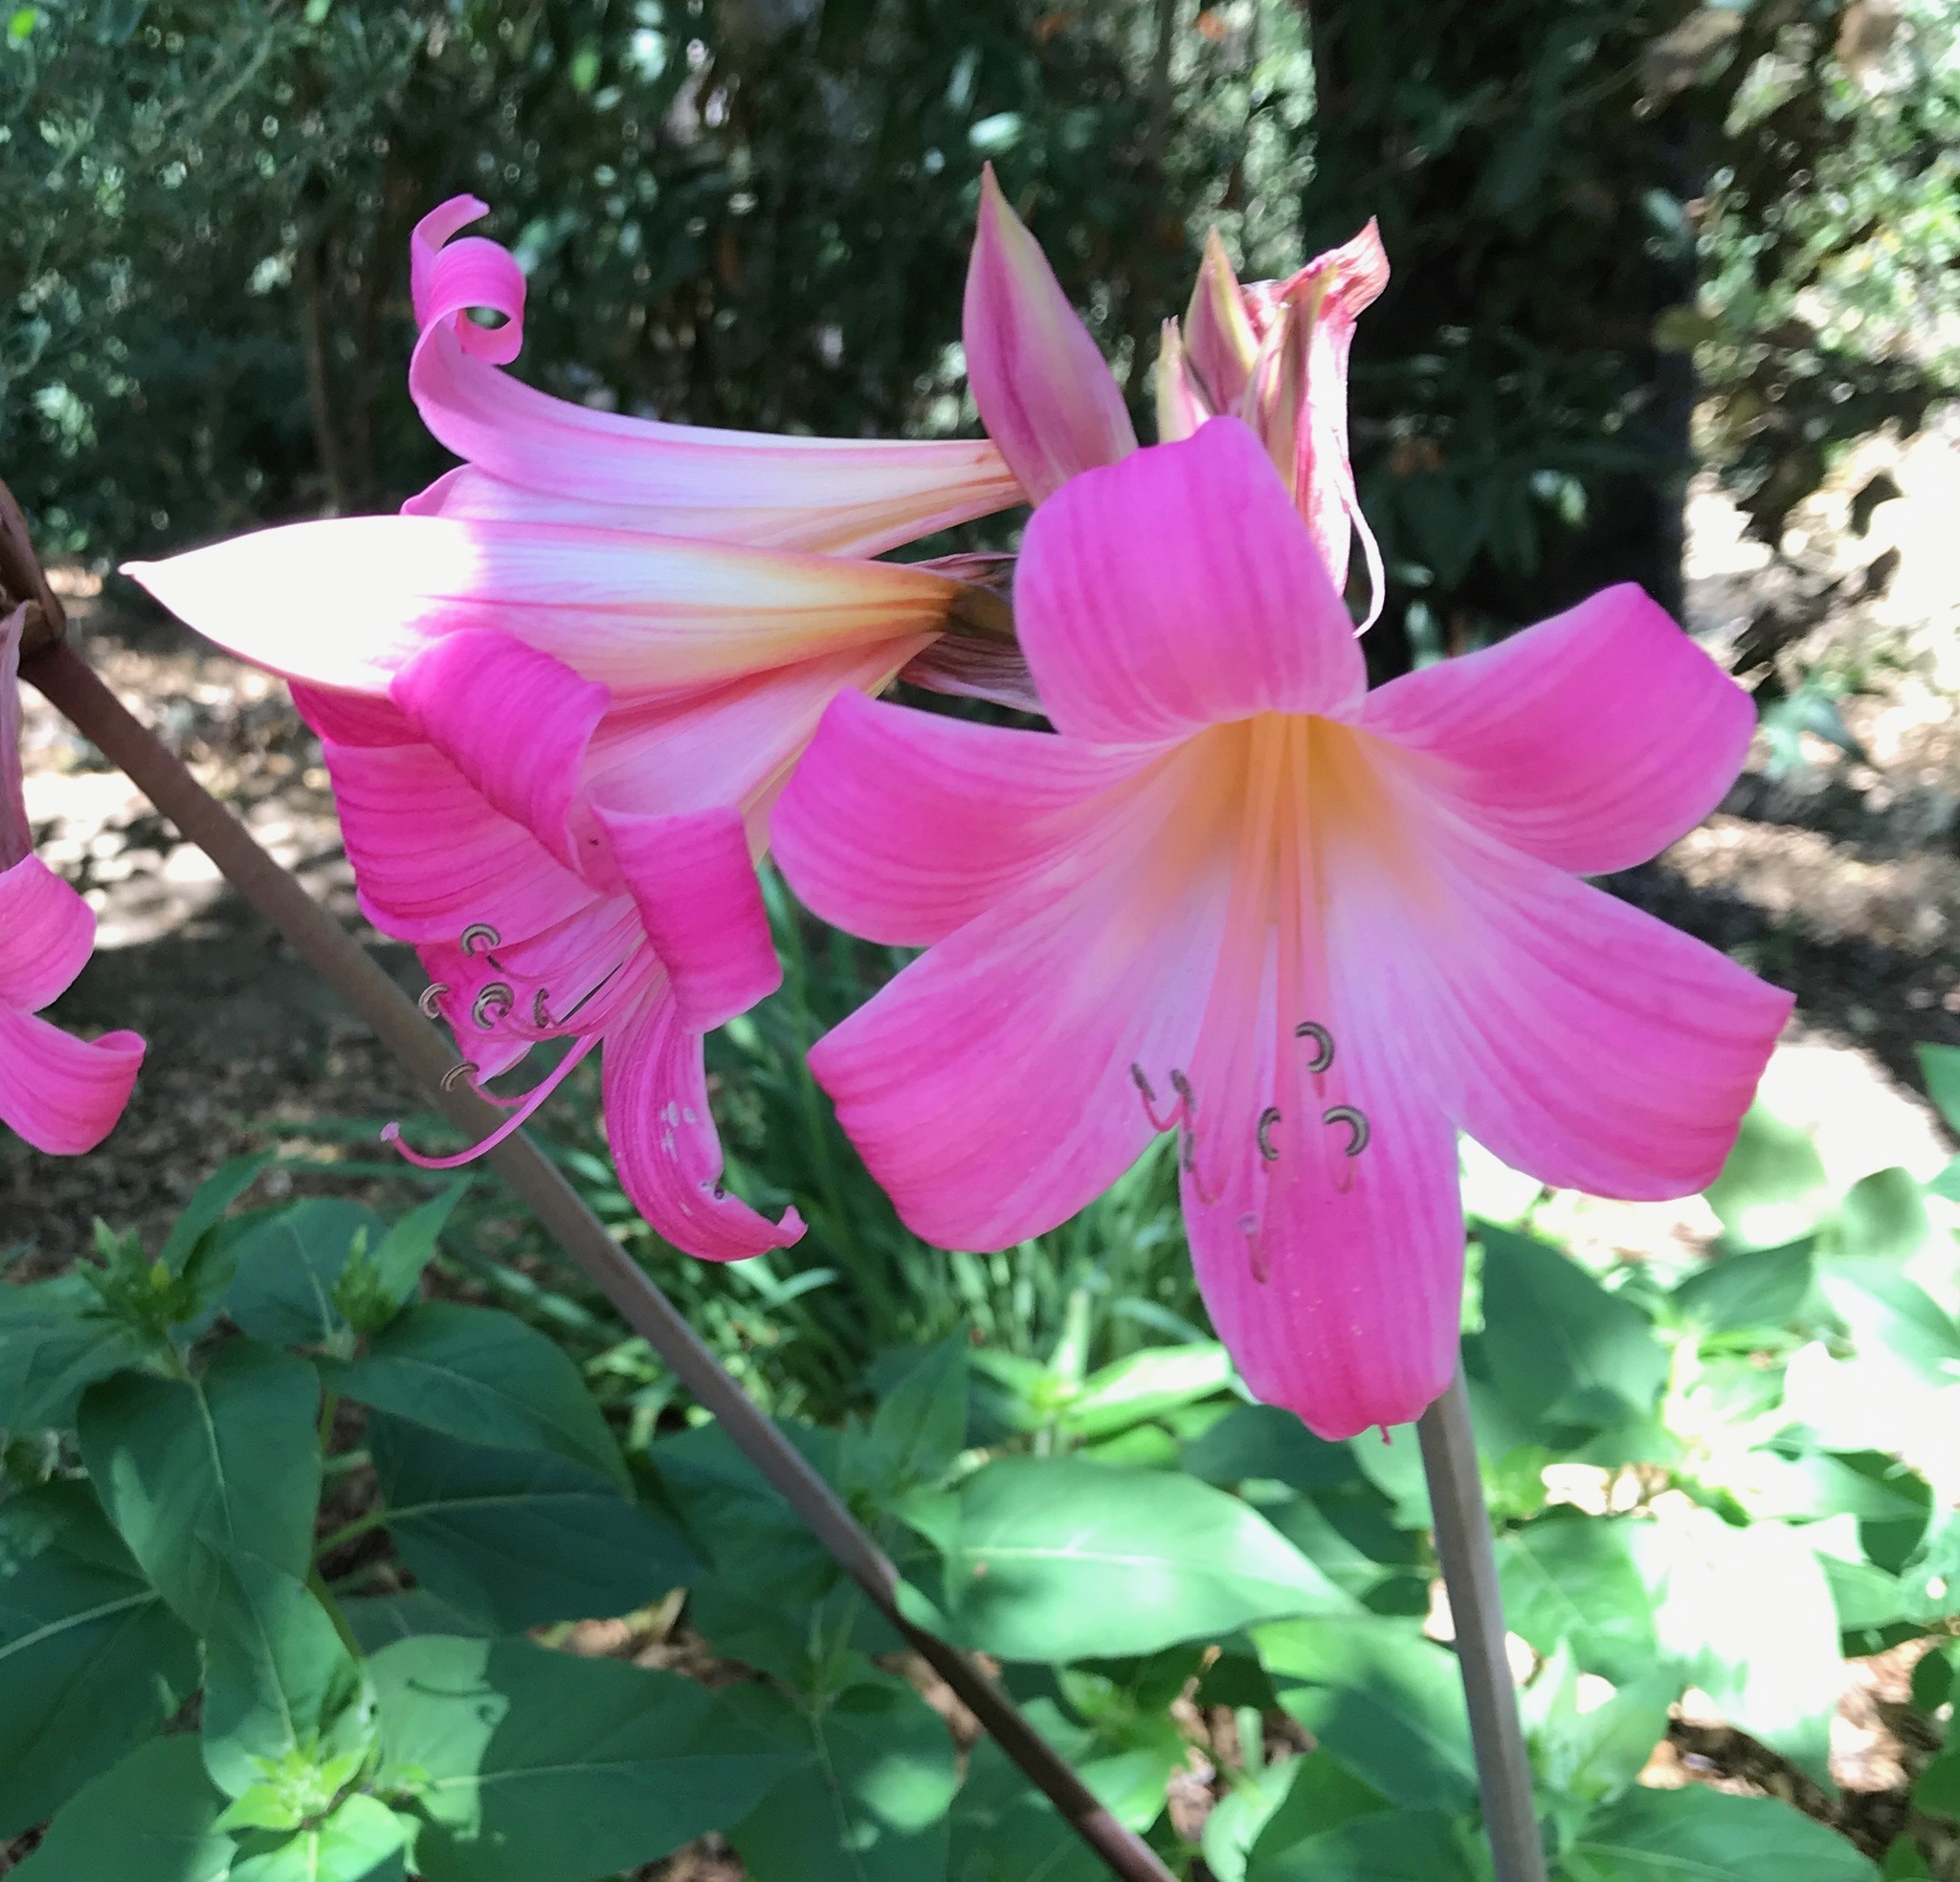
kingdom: Plantae
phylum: Tracheophyta
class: Liliopsida
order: Asparagales
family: Amaryllidaceae
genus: Amaryllis
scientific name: Amaryllis belladonna
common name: Jersey lily
